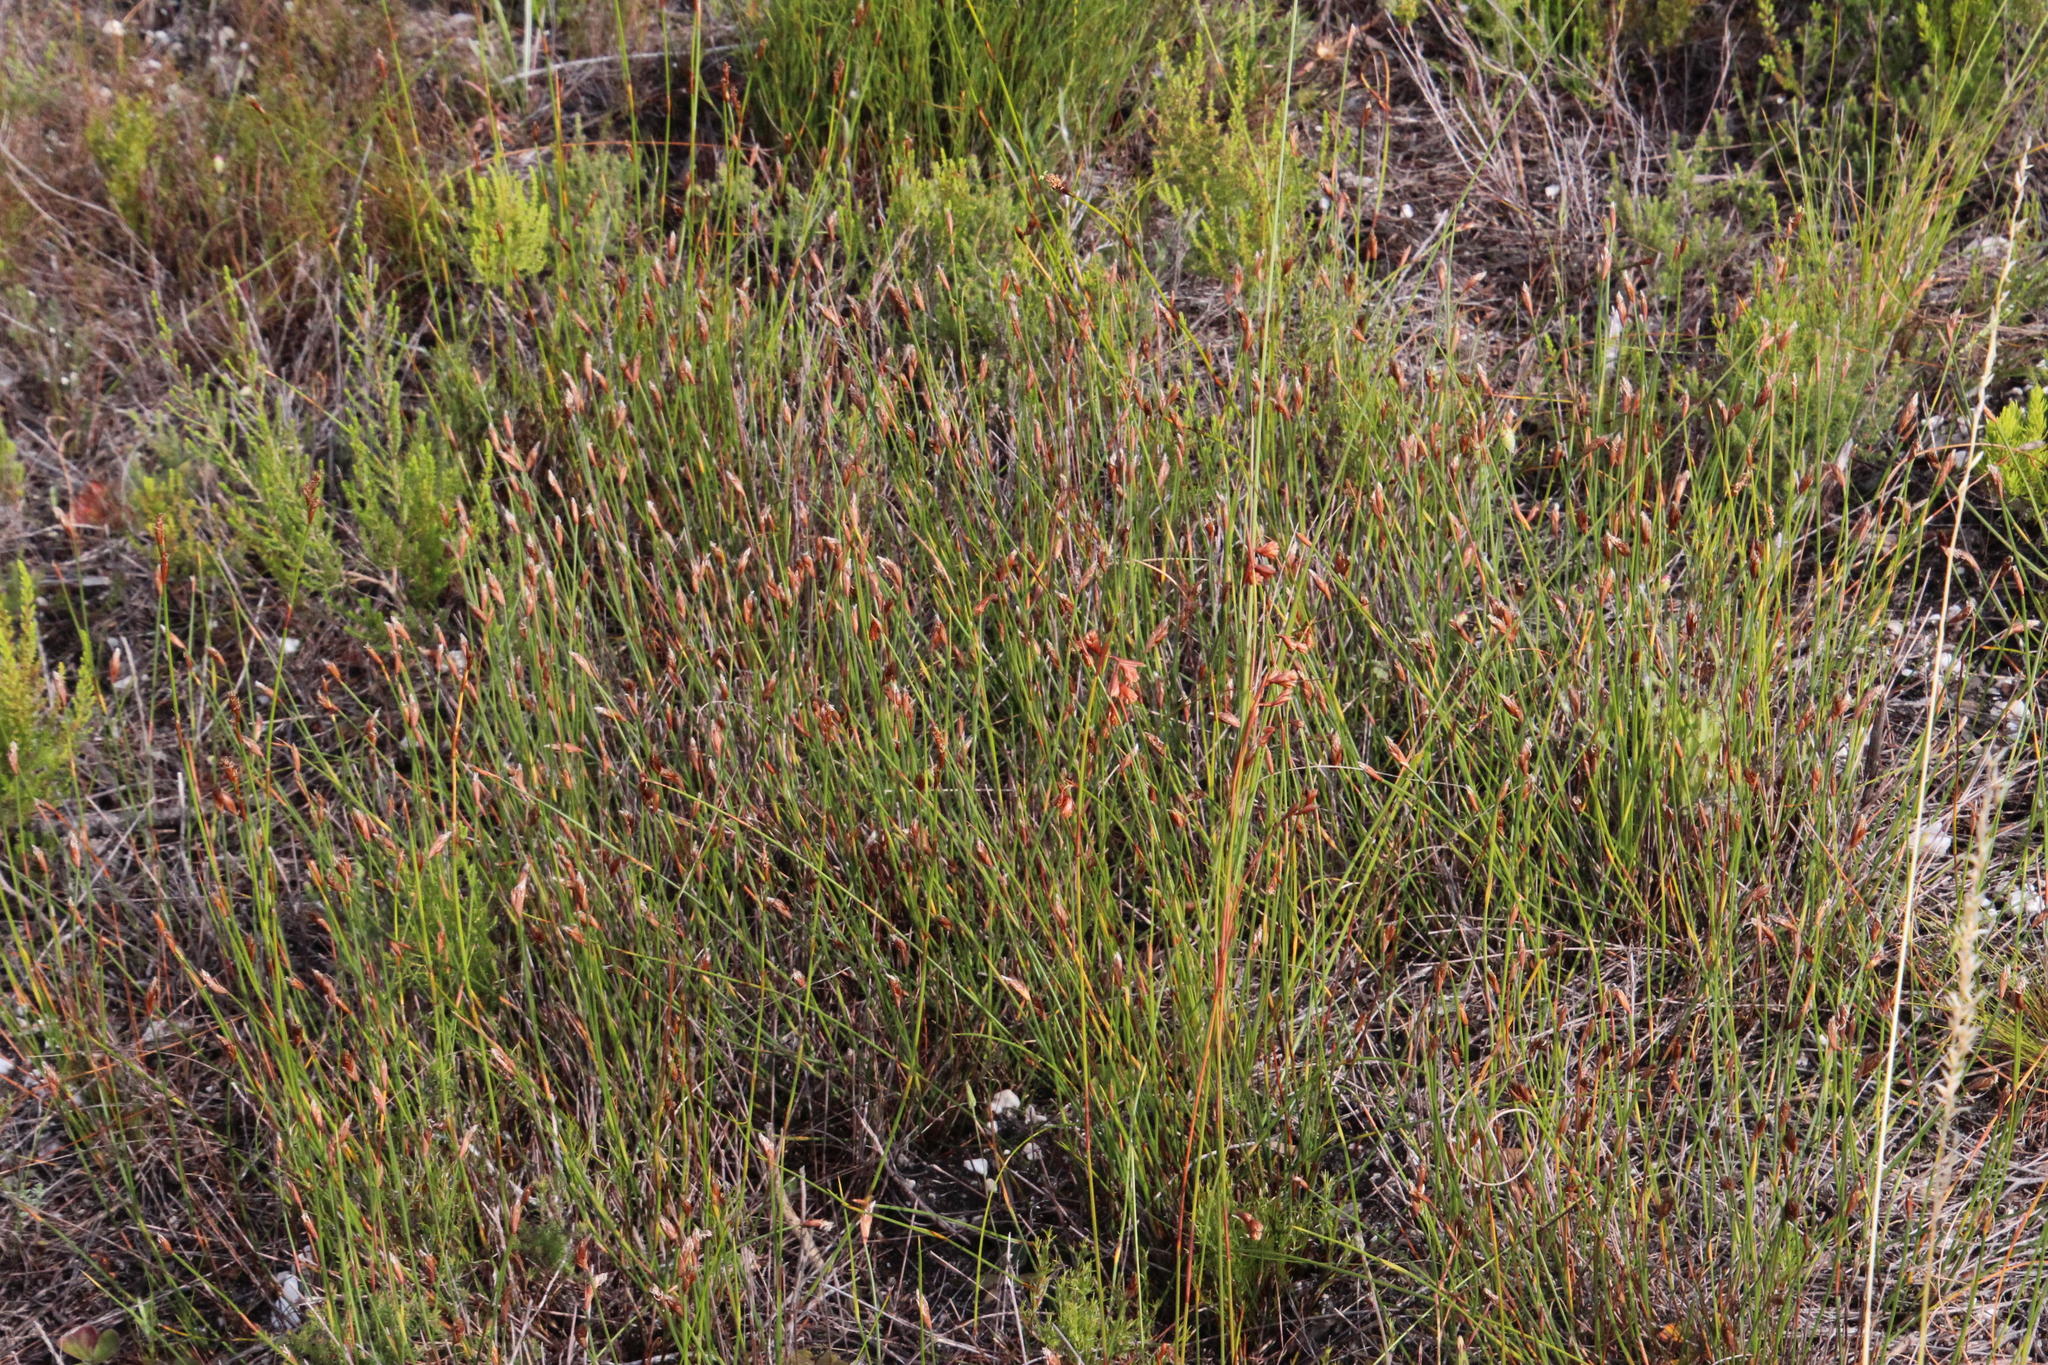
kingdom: Plantae
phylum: Tracheophyta
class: Liliopsida
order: Poales
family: Restionaceae
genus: Hypodiscus
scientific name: Hypodiscus willdenowia
